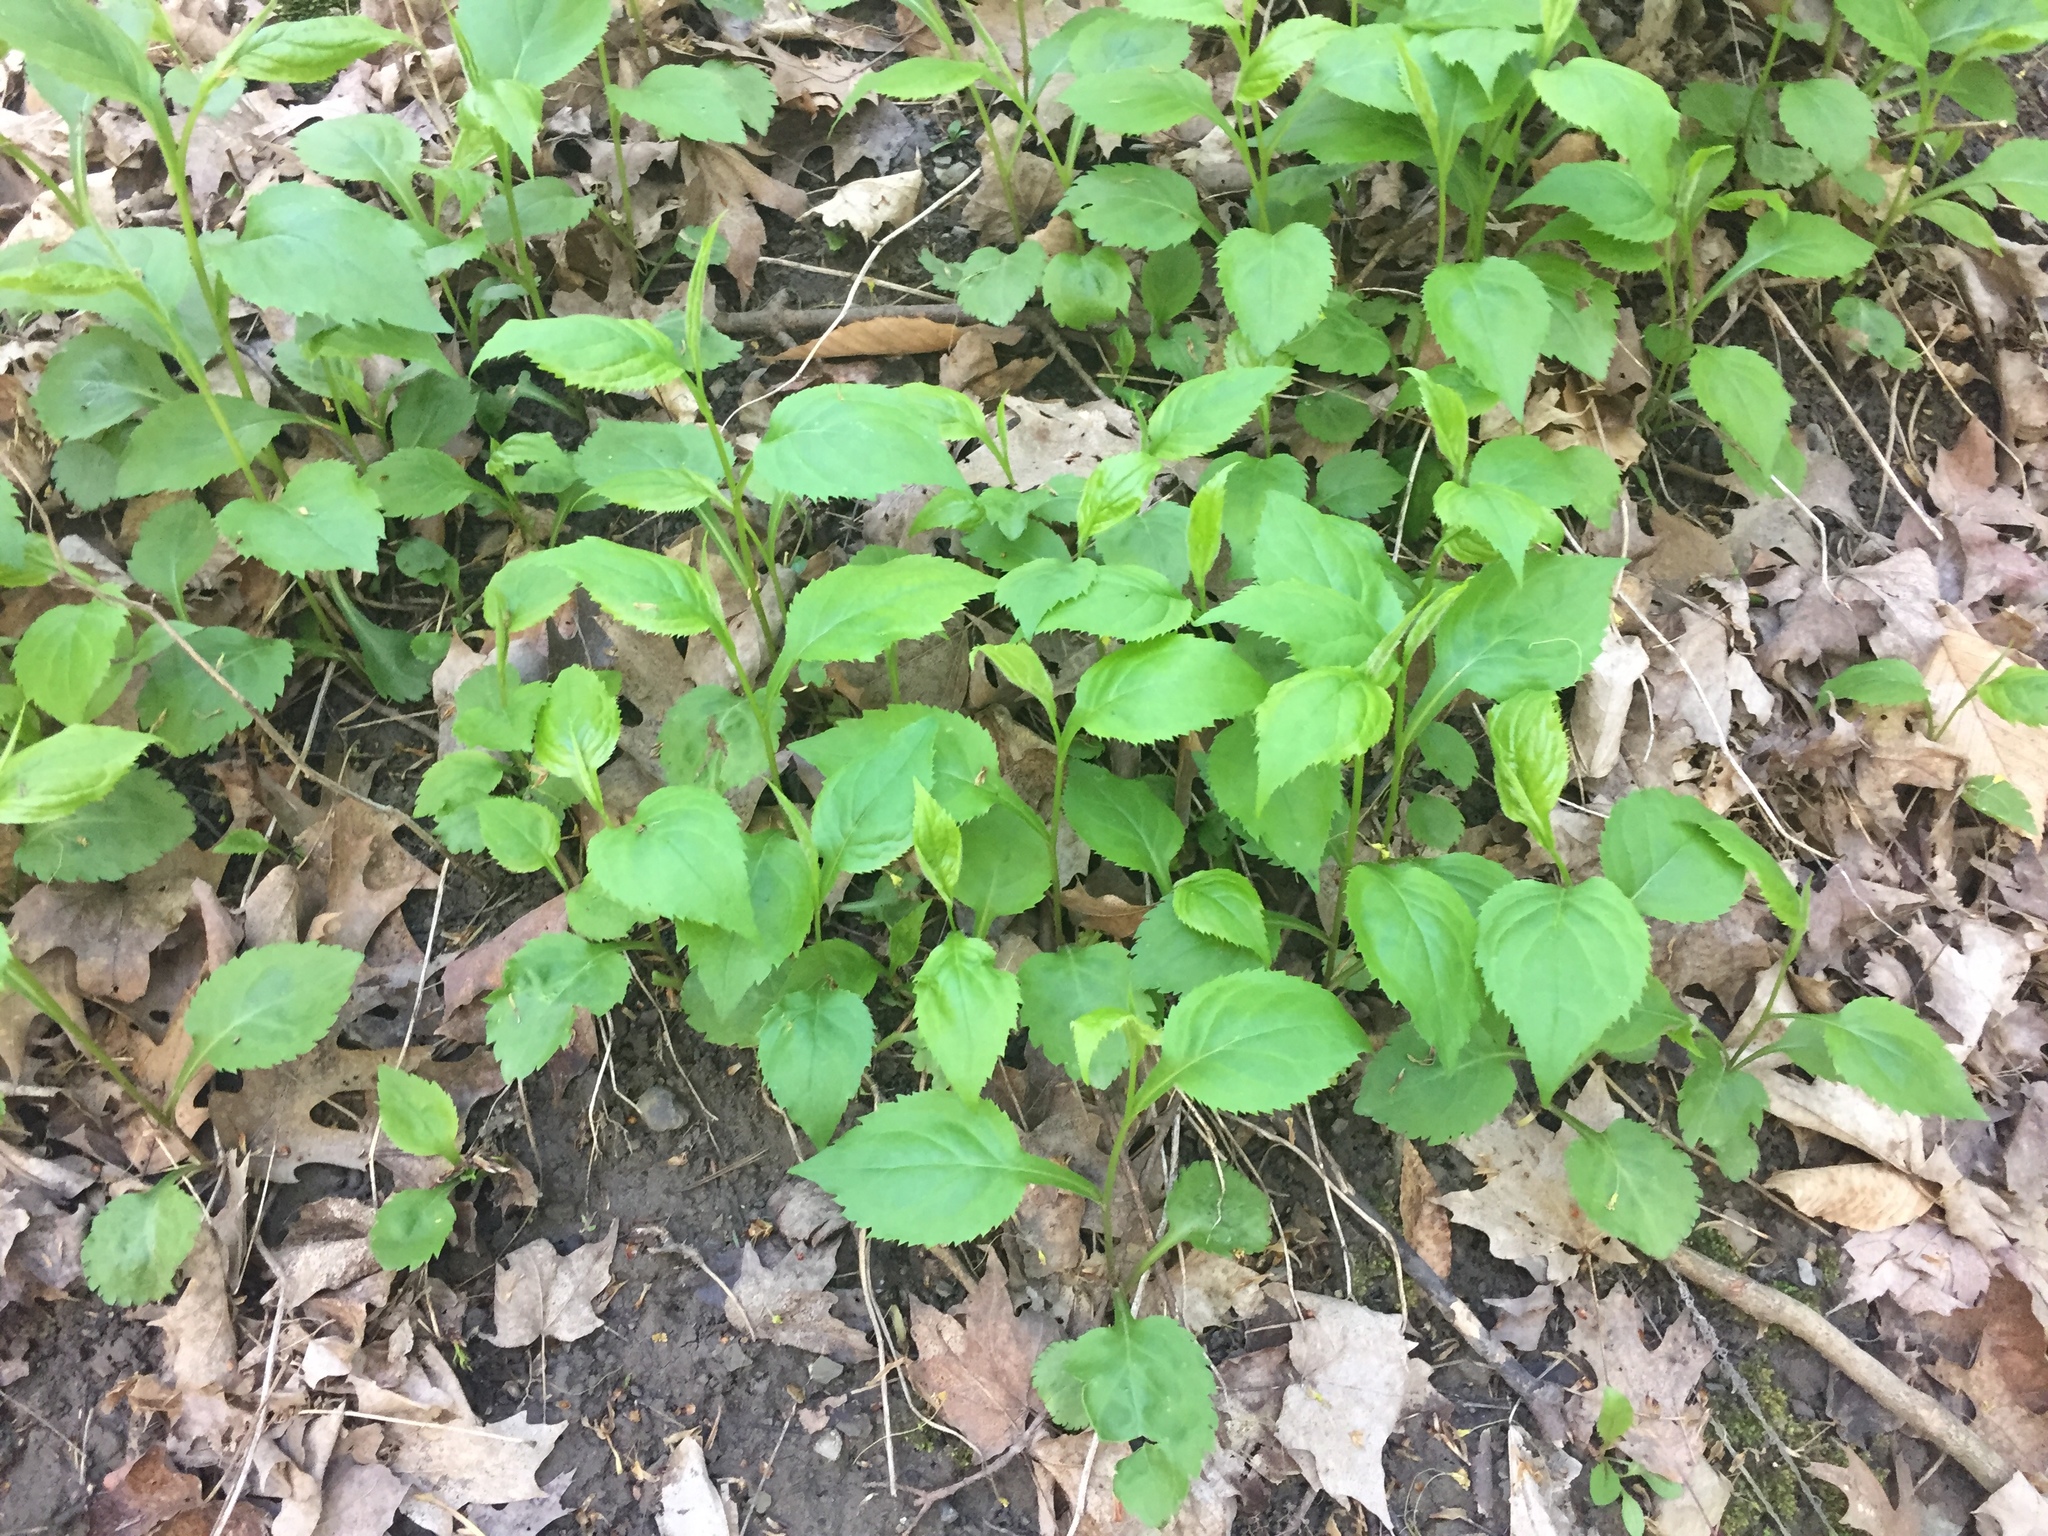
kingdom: Plantae
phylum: Tracheophyta
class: Magnoliopsida
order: Asterales
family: Asteraceae
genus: Solidago
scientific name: Solidago flexicaulis
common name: Zig-zag goldenrod
